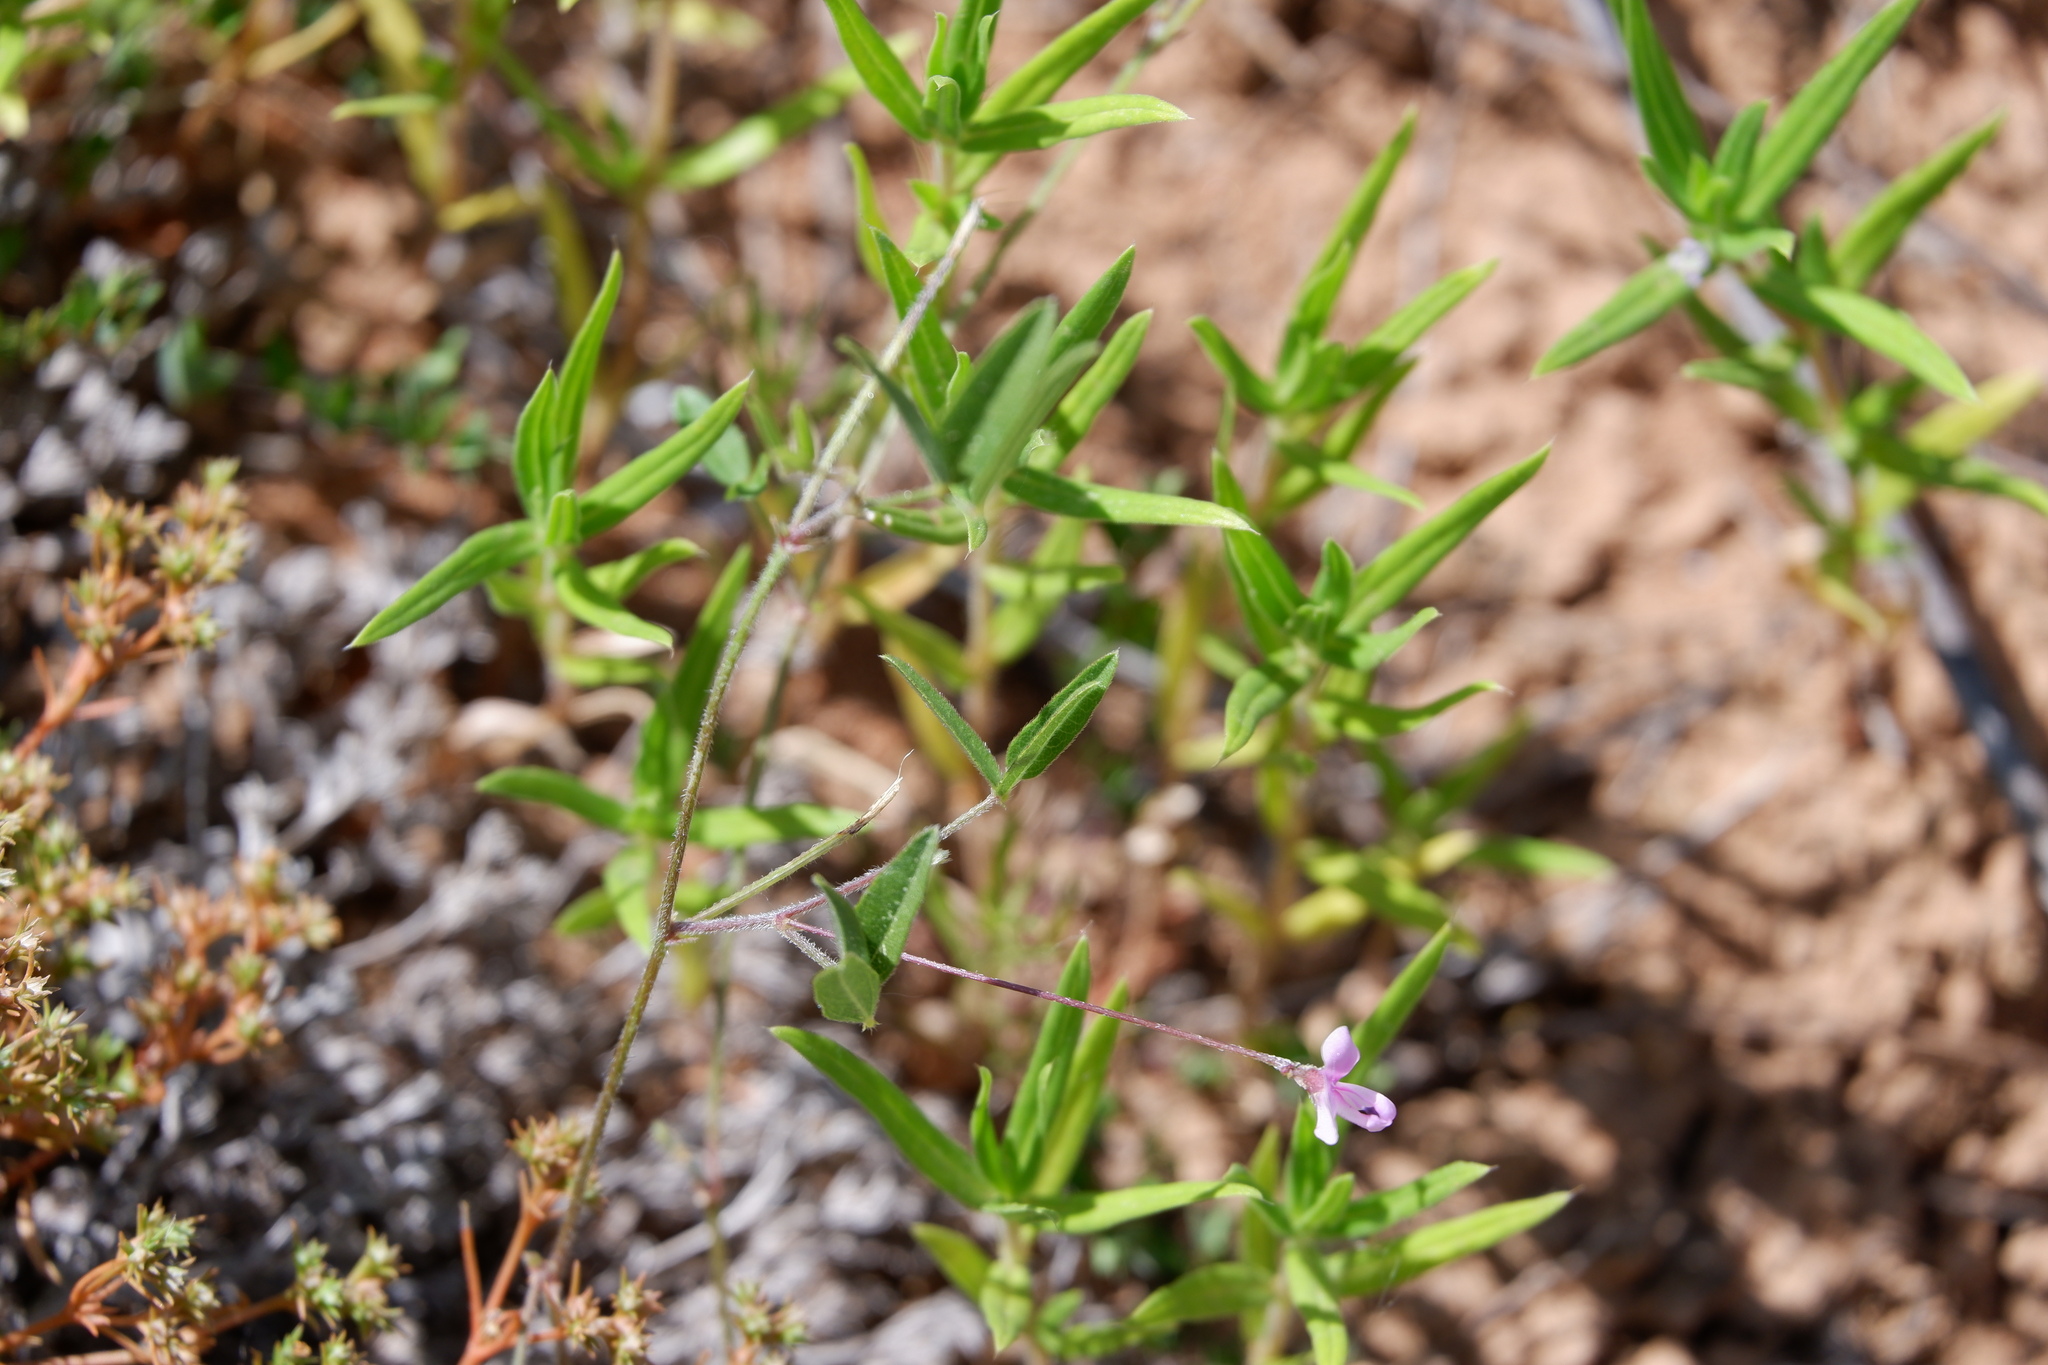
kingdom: Plantae
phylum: Tracheophyta
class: Magnoliopsida
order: Fabales
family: Fabaceae
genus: Strophostyles
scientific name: Strophostyles leiosperma
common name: Smooth-seed wild bean
